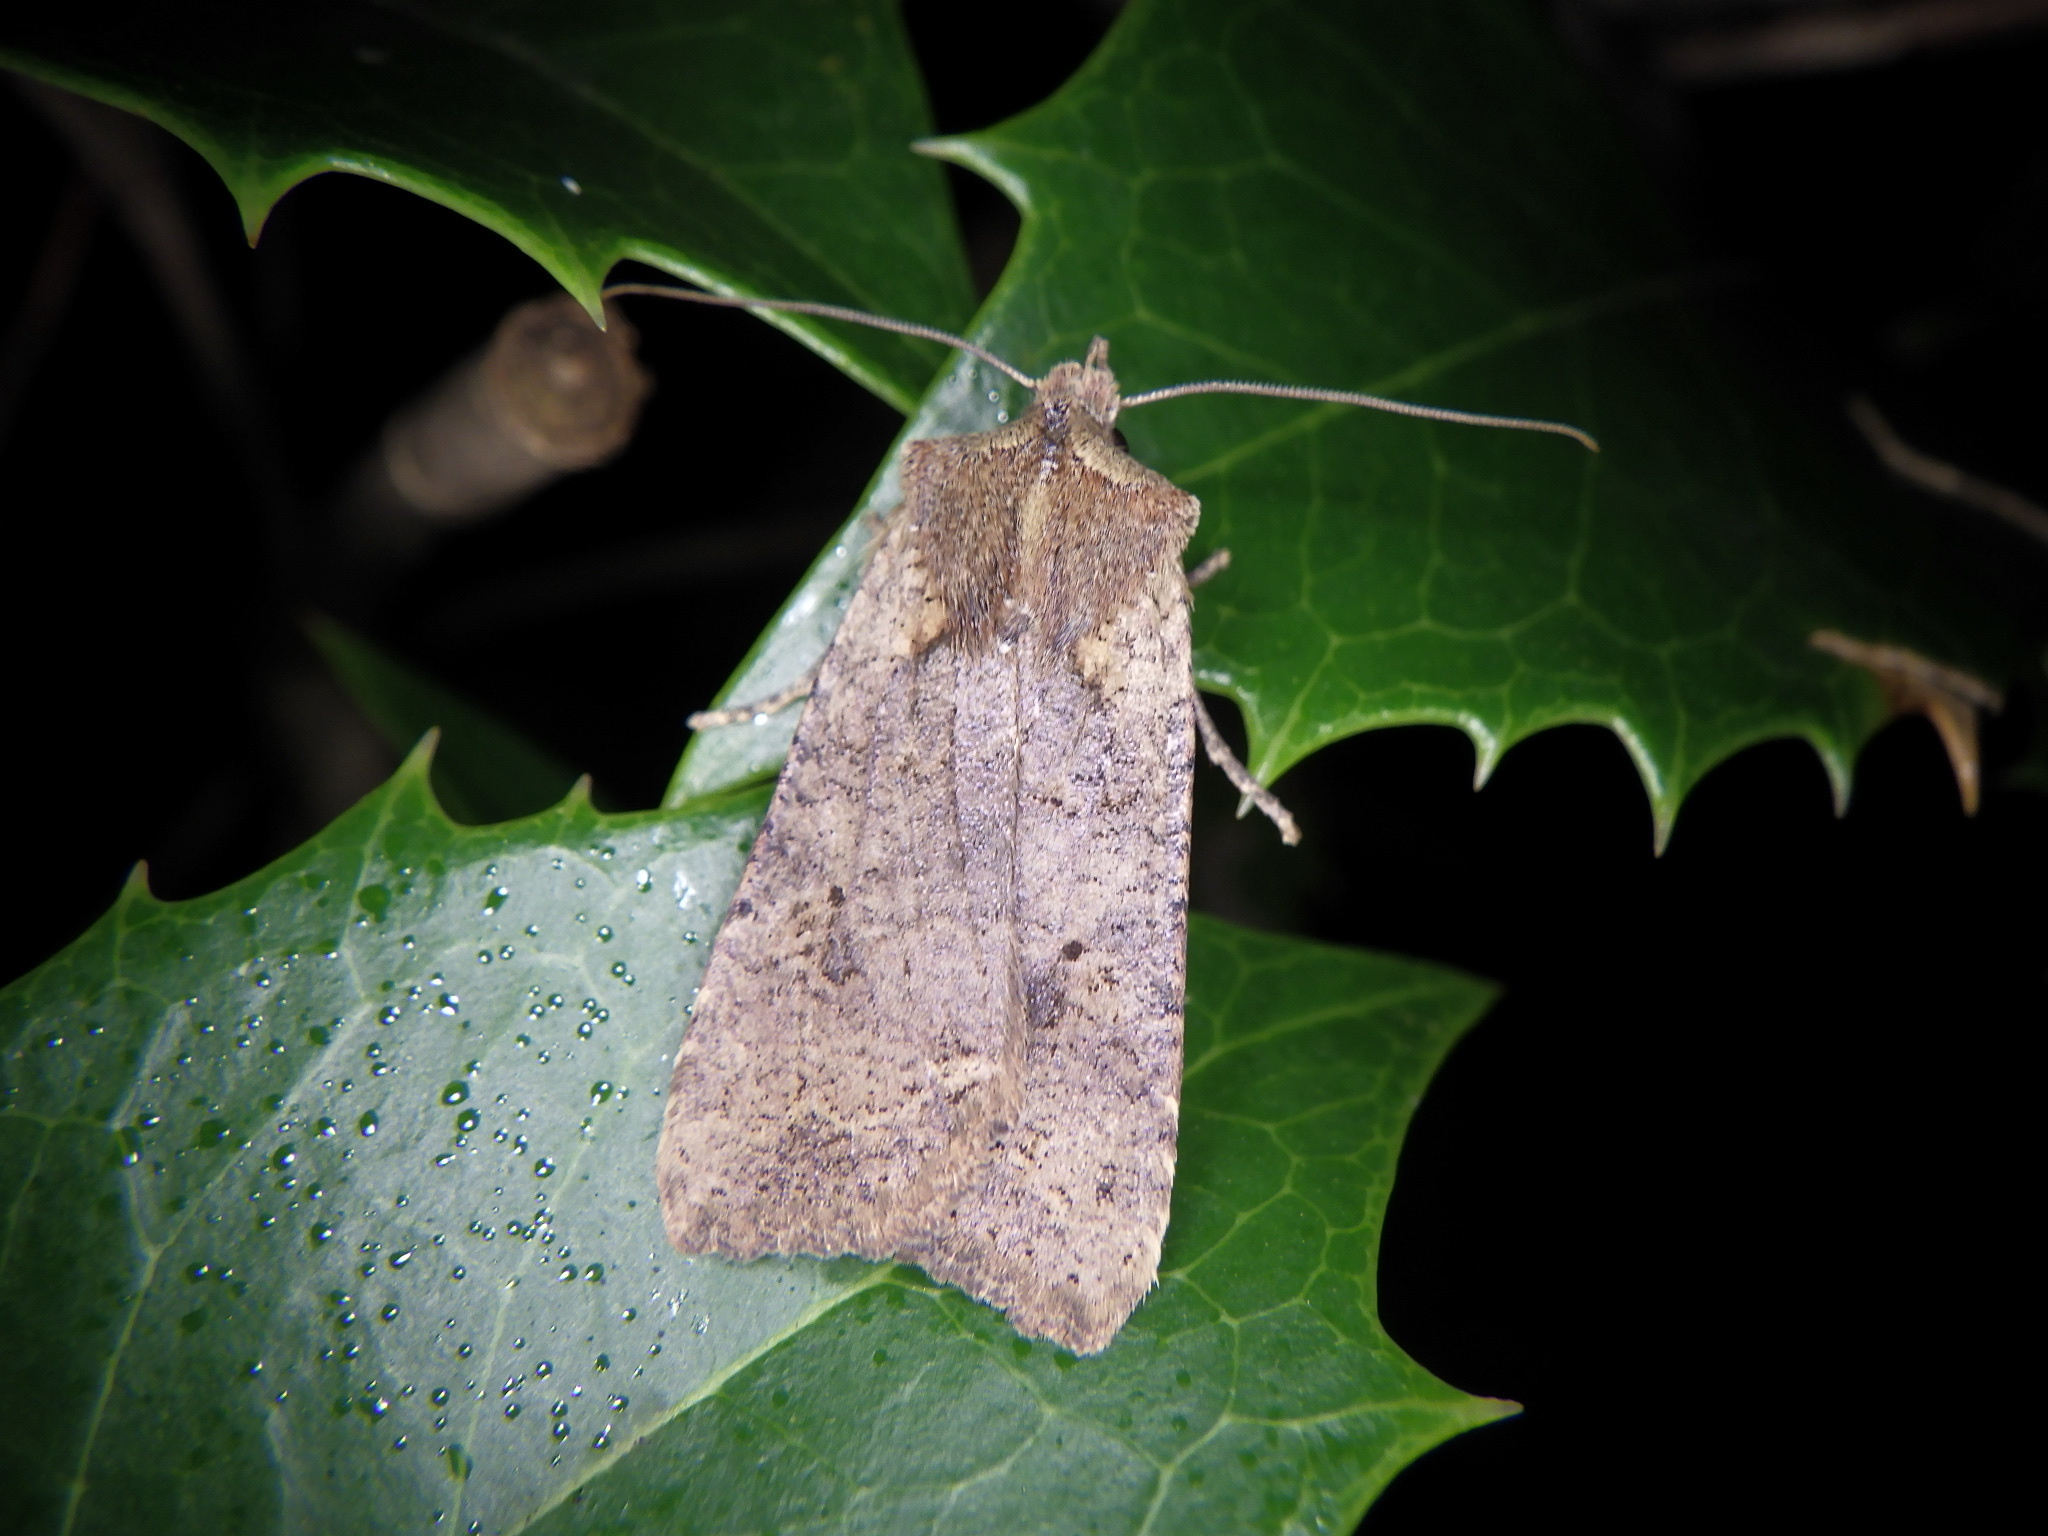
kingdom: Animalia
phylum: Arthropoda
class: Insecta
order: Lepidoptera
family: Noctuidae
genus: Rhynchaglaea
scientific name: Rhynchaglaea fuscipennis
